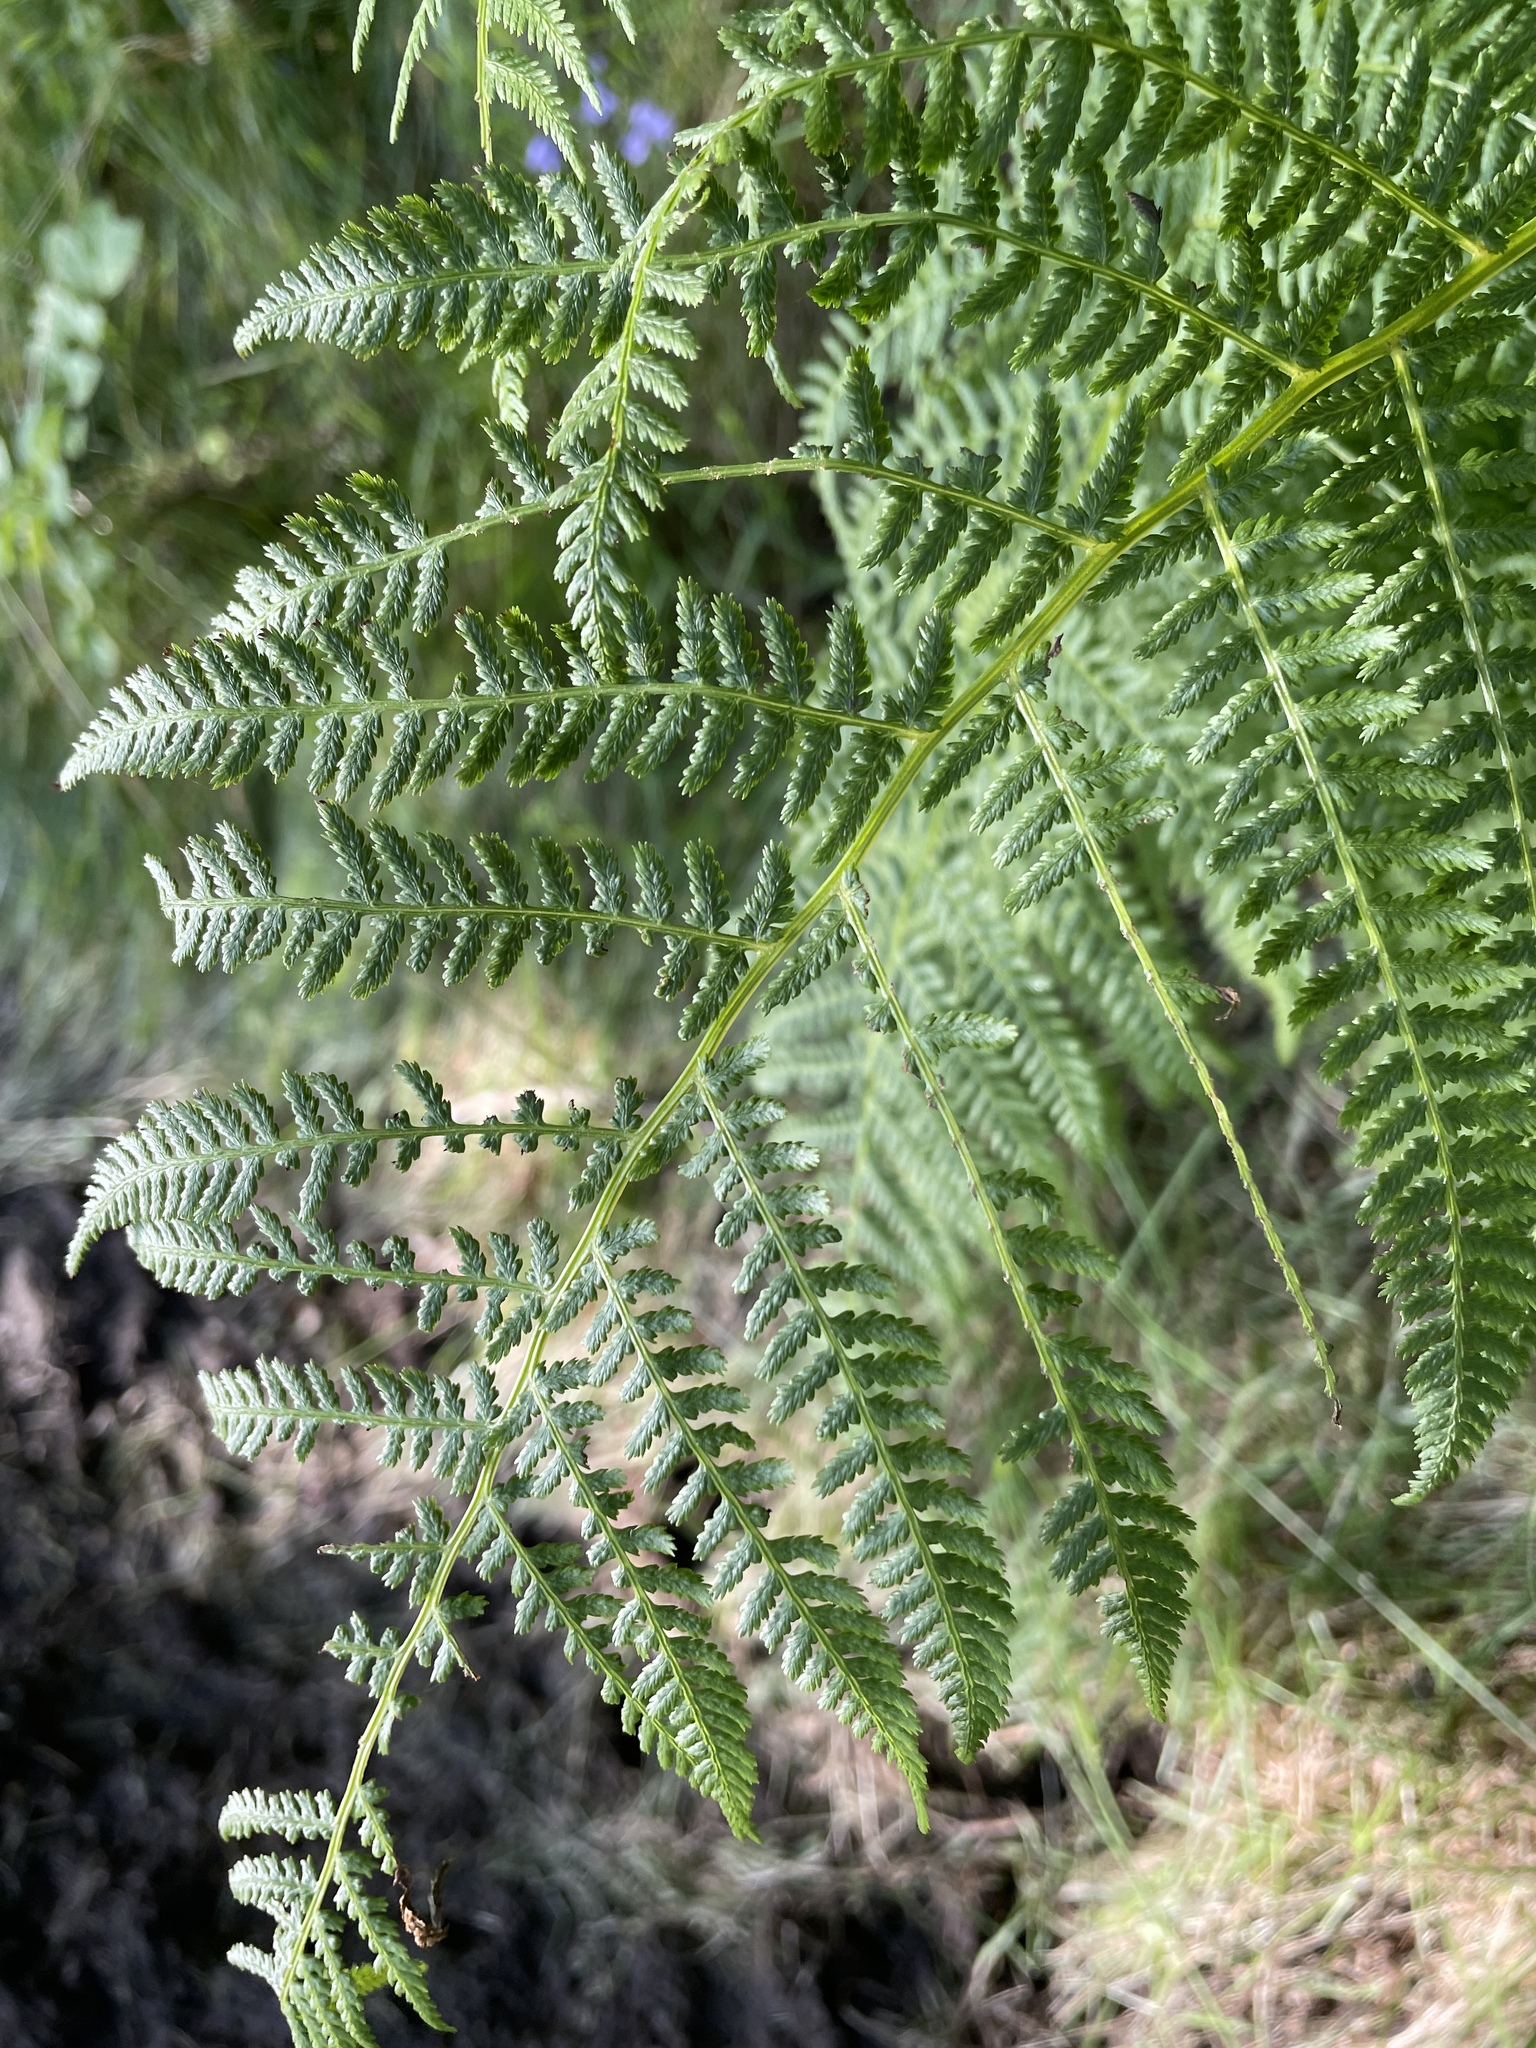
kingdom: Plantae
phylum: Tracheophyta
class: Polypodiopsida
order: Polypodiales
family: Athyriaceae
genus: Athyrium
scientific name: Athyrium filix-femina
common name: Lady fern
